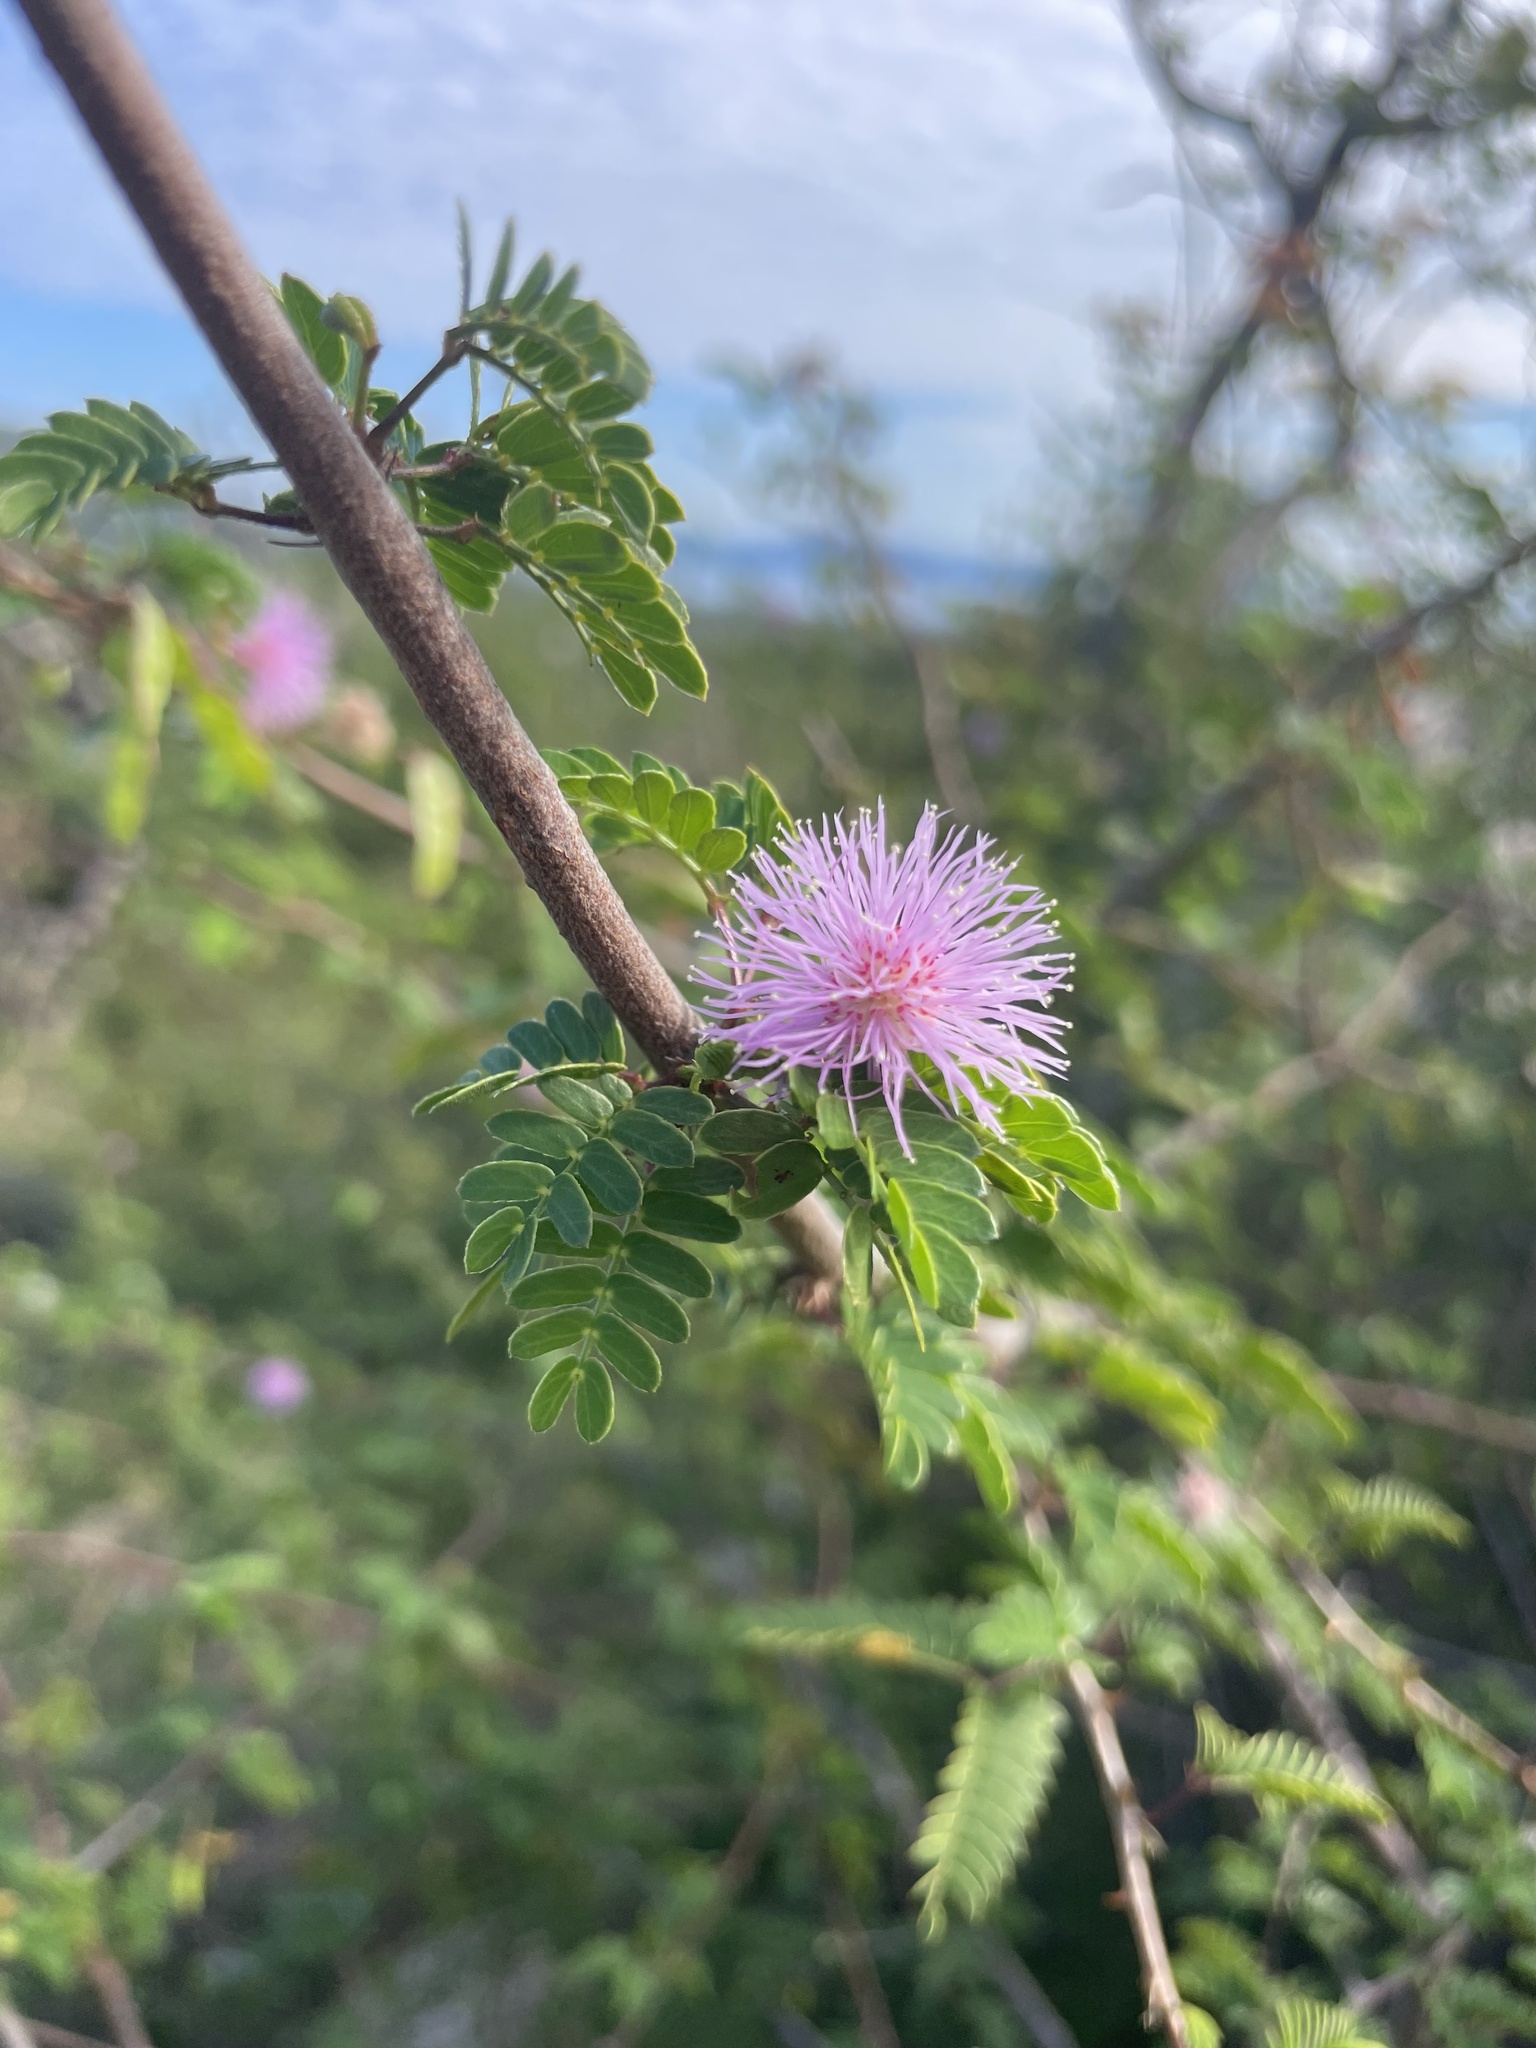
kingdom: Plantae
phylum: Tracheophyta
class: Magnoliopsida
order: Fabales
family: Fabaceae
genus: Mimosa
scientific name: Mimosa tricephala
